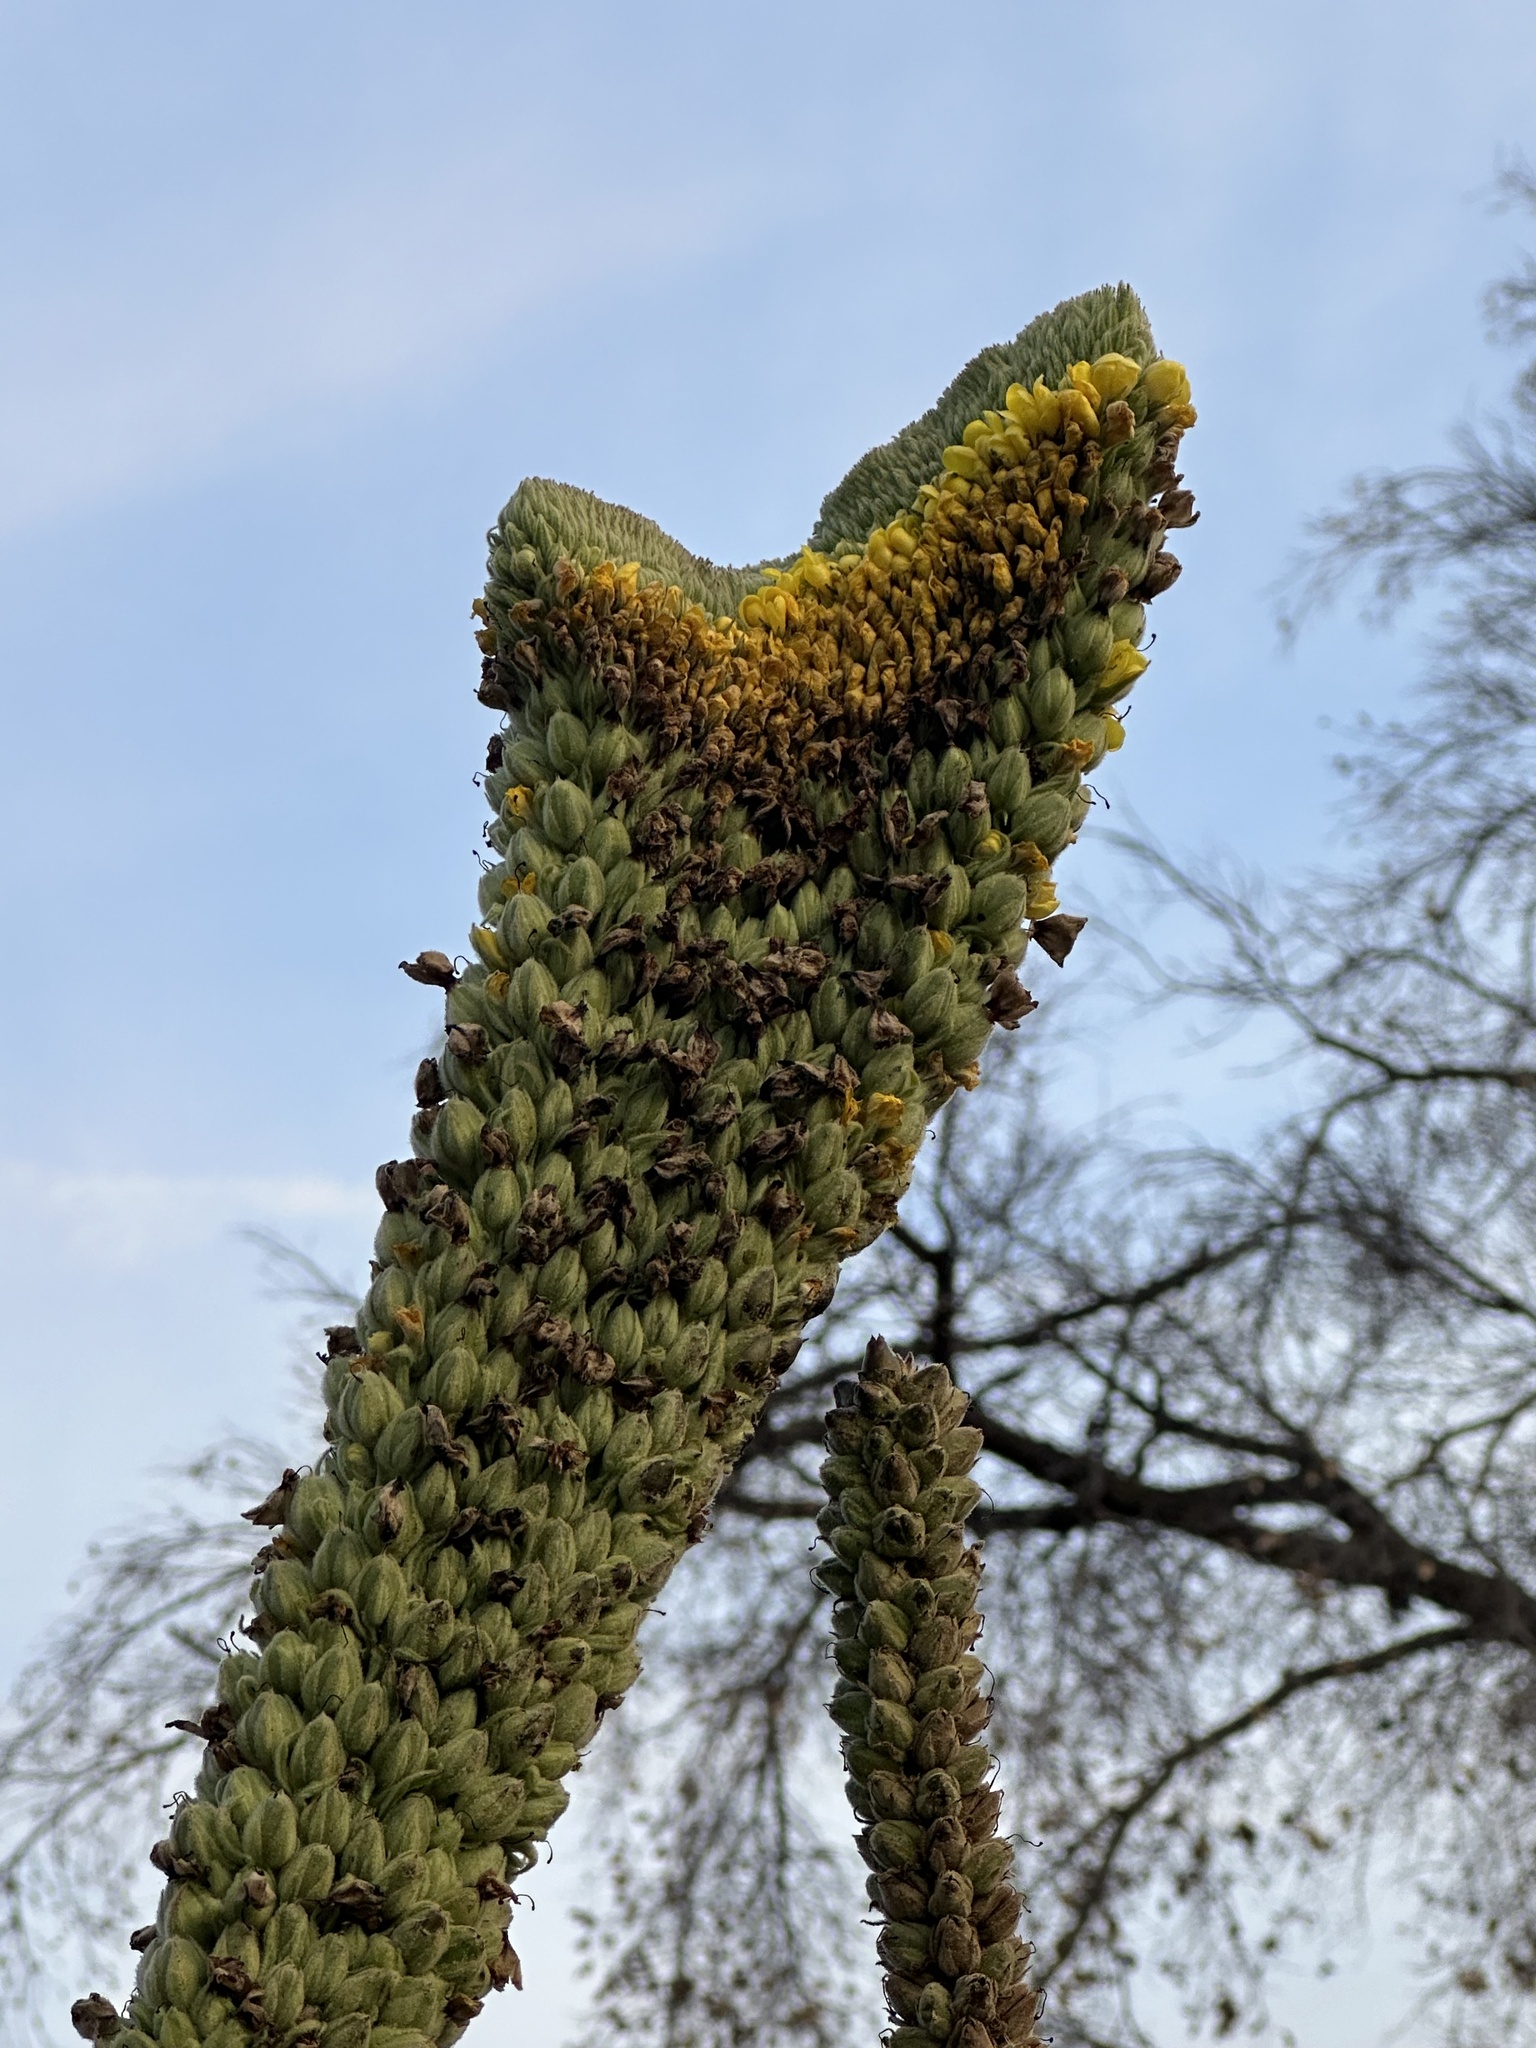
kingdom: Plantae
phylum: Tracheophyta
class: Magnoliopsida
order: Lamiales
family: Scrophulariaceae
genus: Verbascum
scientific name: Verbascum thapsus
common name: Common mullein
